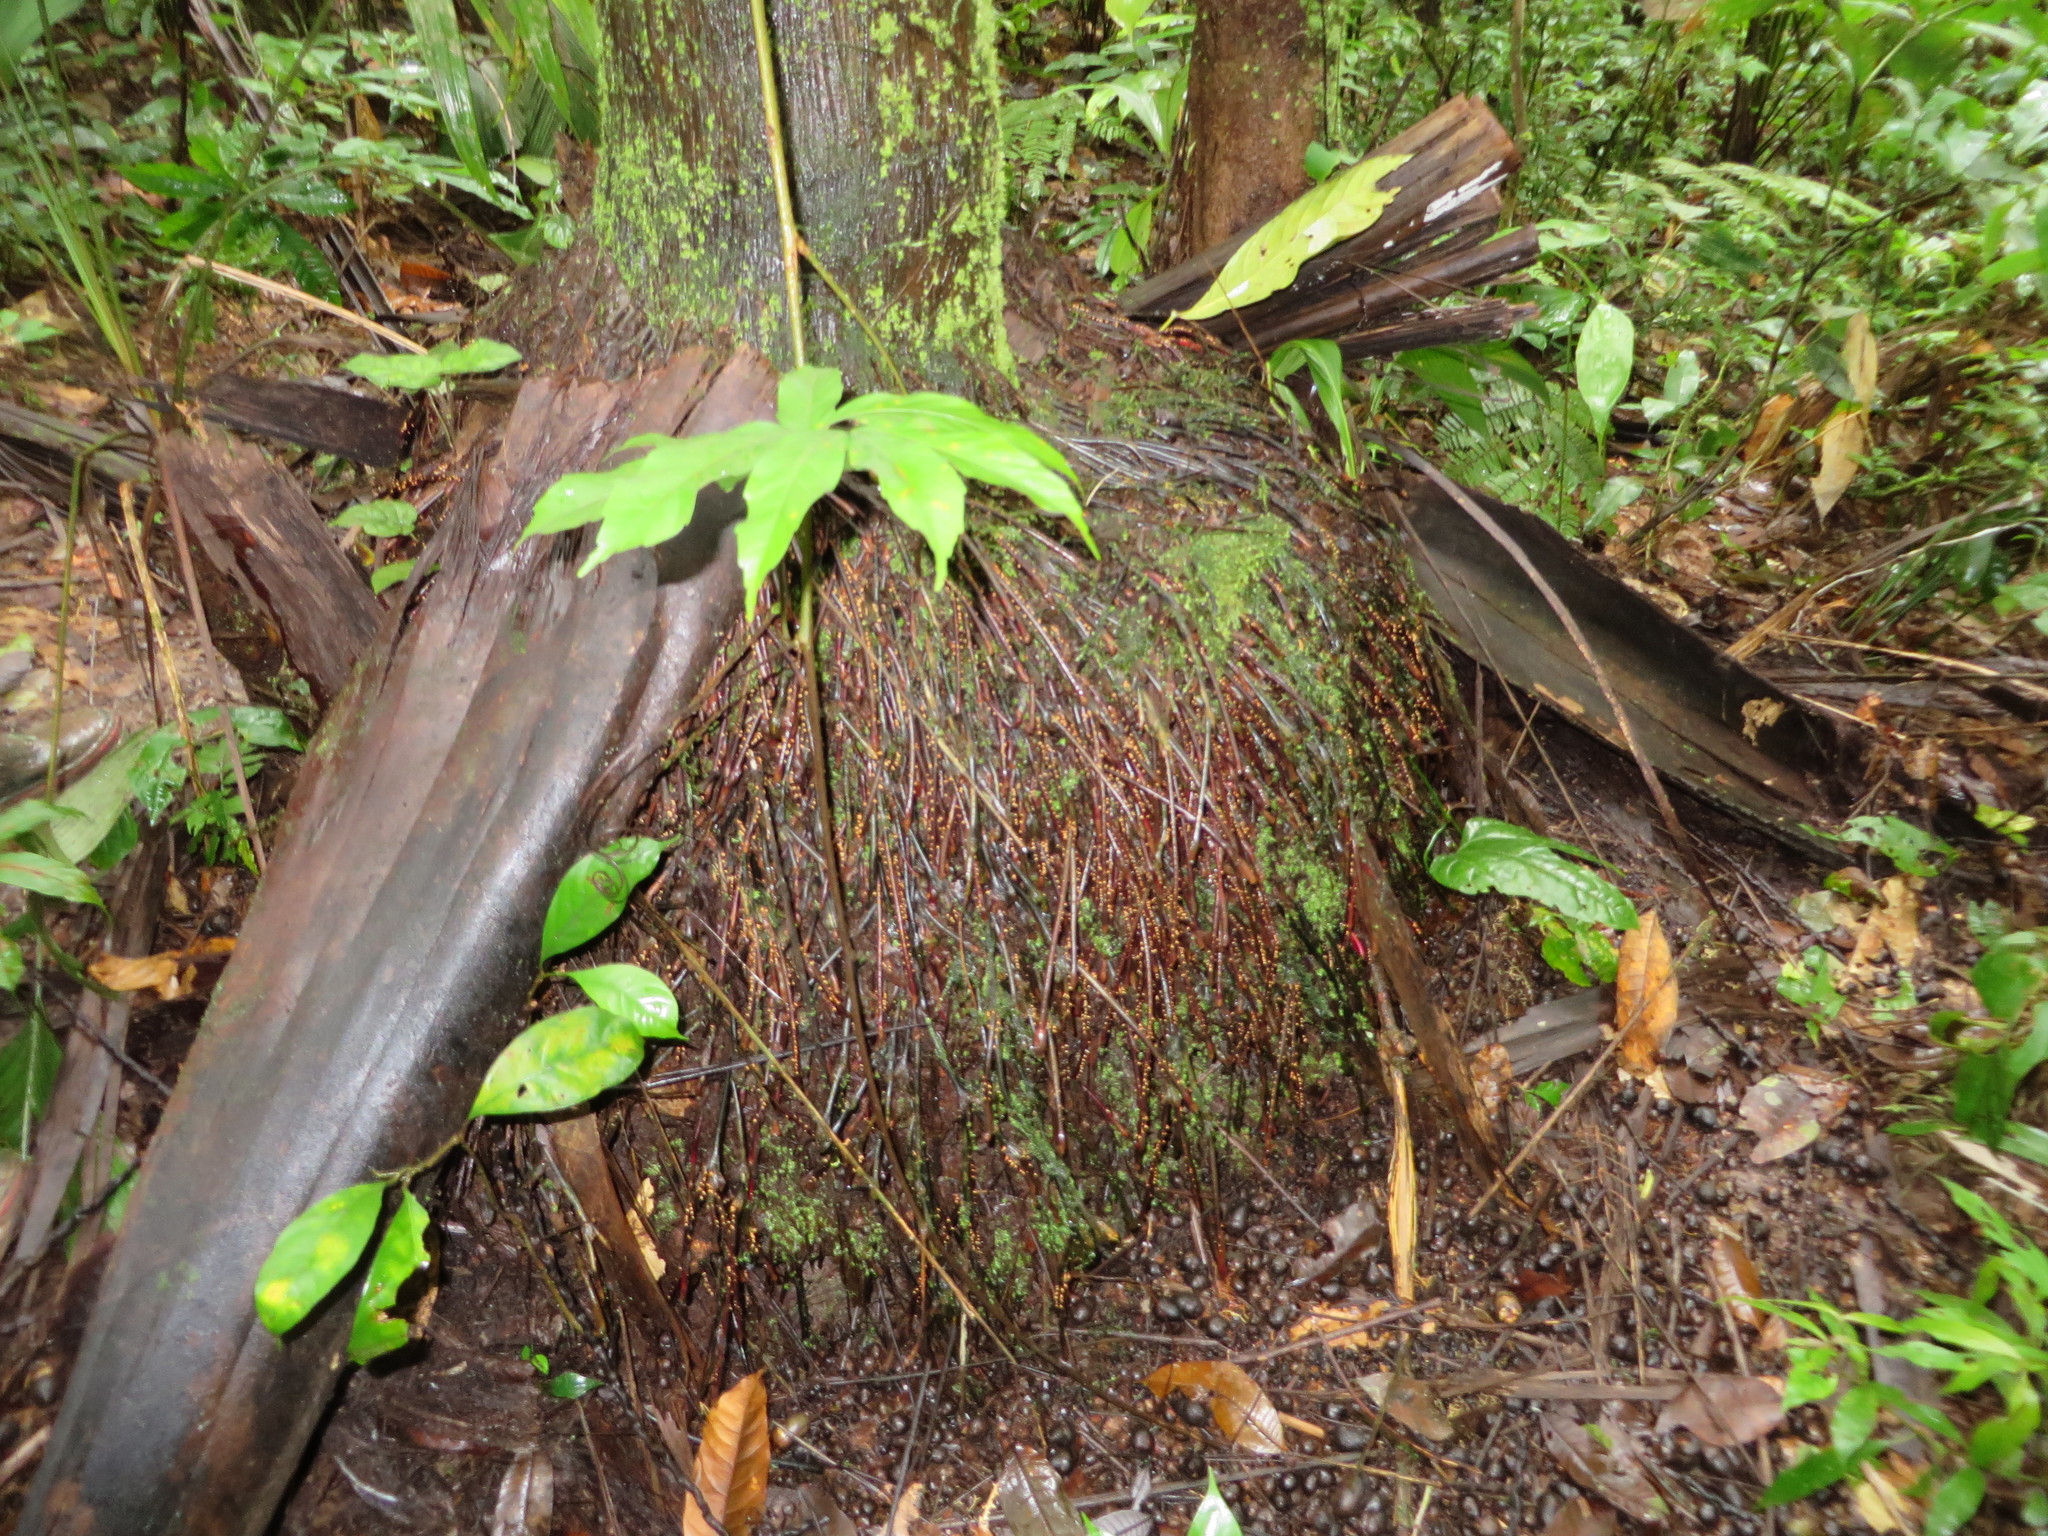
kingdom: Plantae
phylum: Tracheophyta
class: Liliopsida
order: Arecales
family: Arecaceae
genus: Oenocarpus
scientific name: Oenocarpus bataua
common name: Bataua palm
